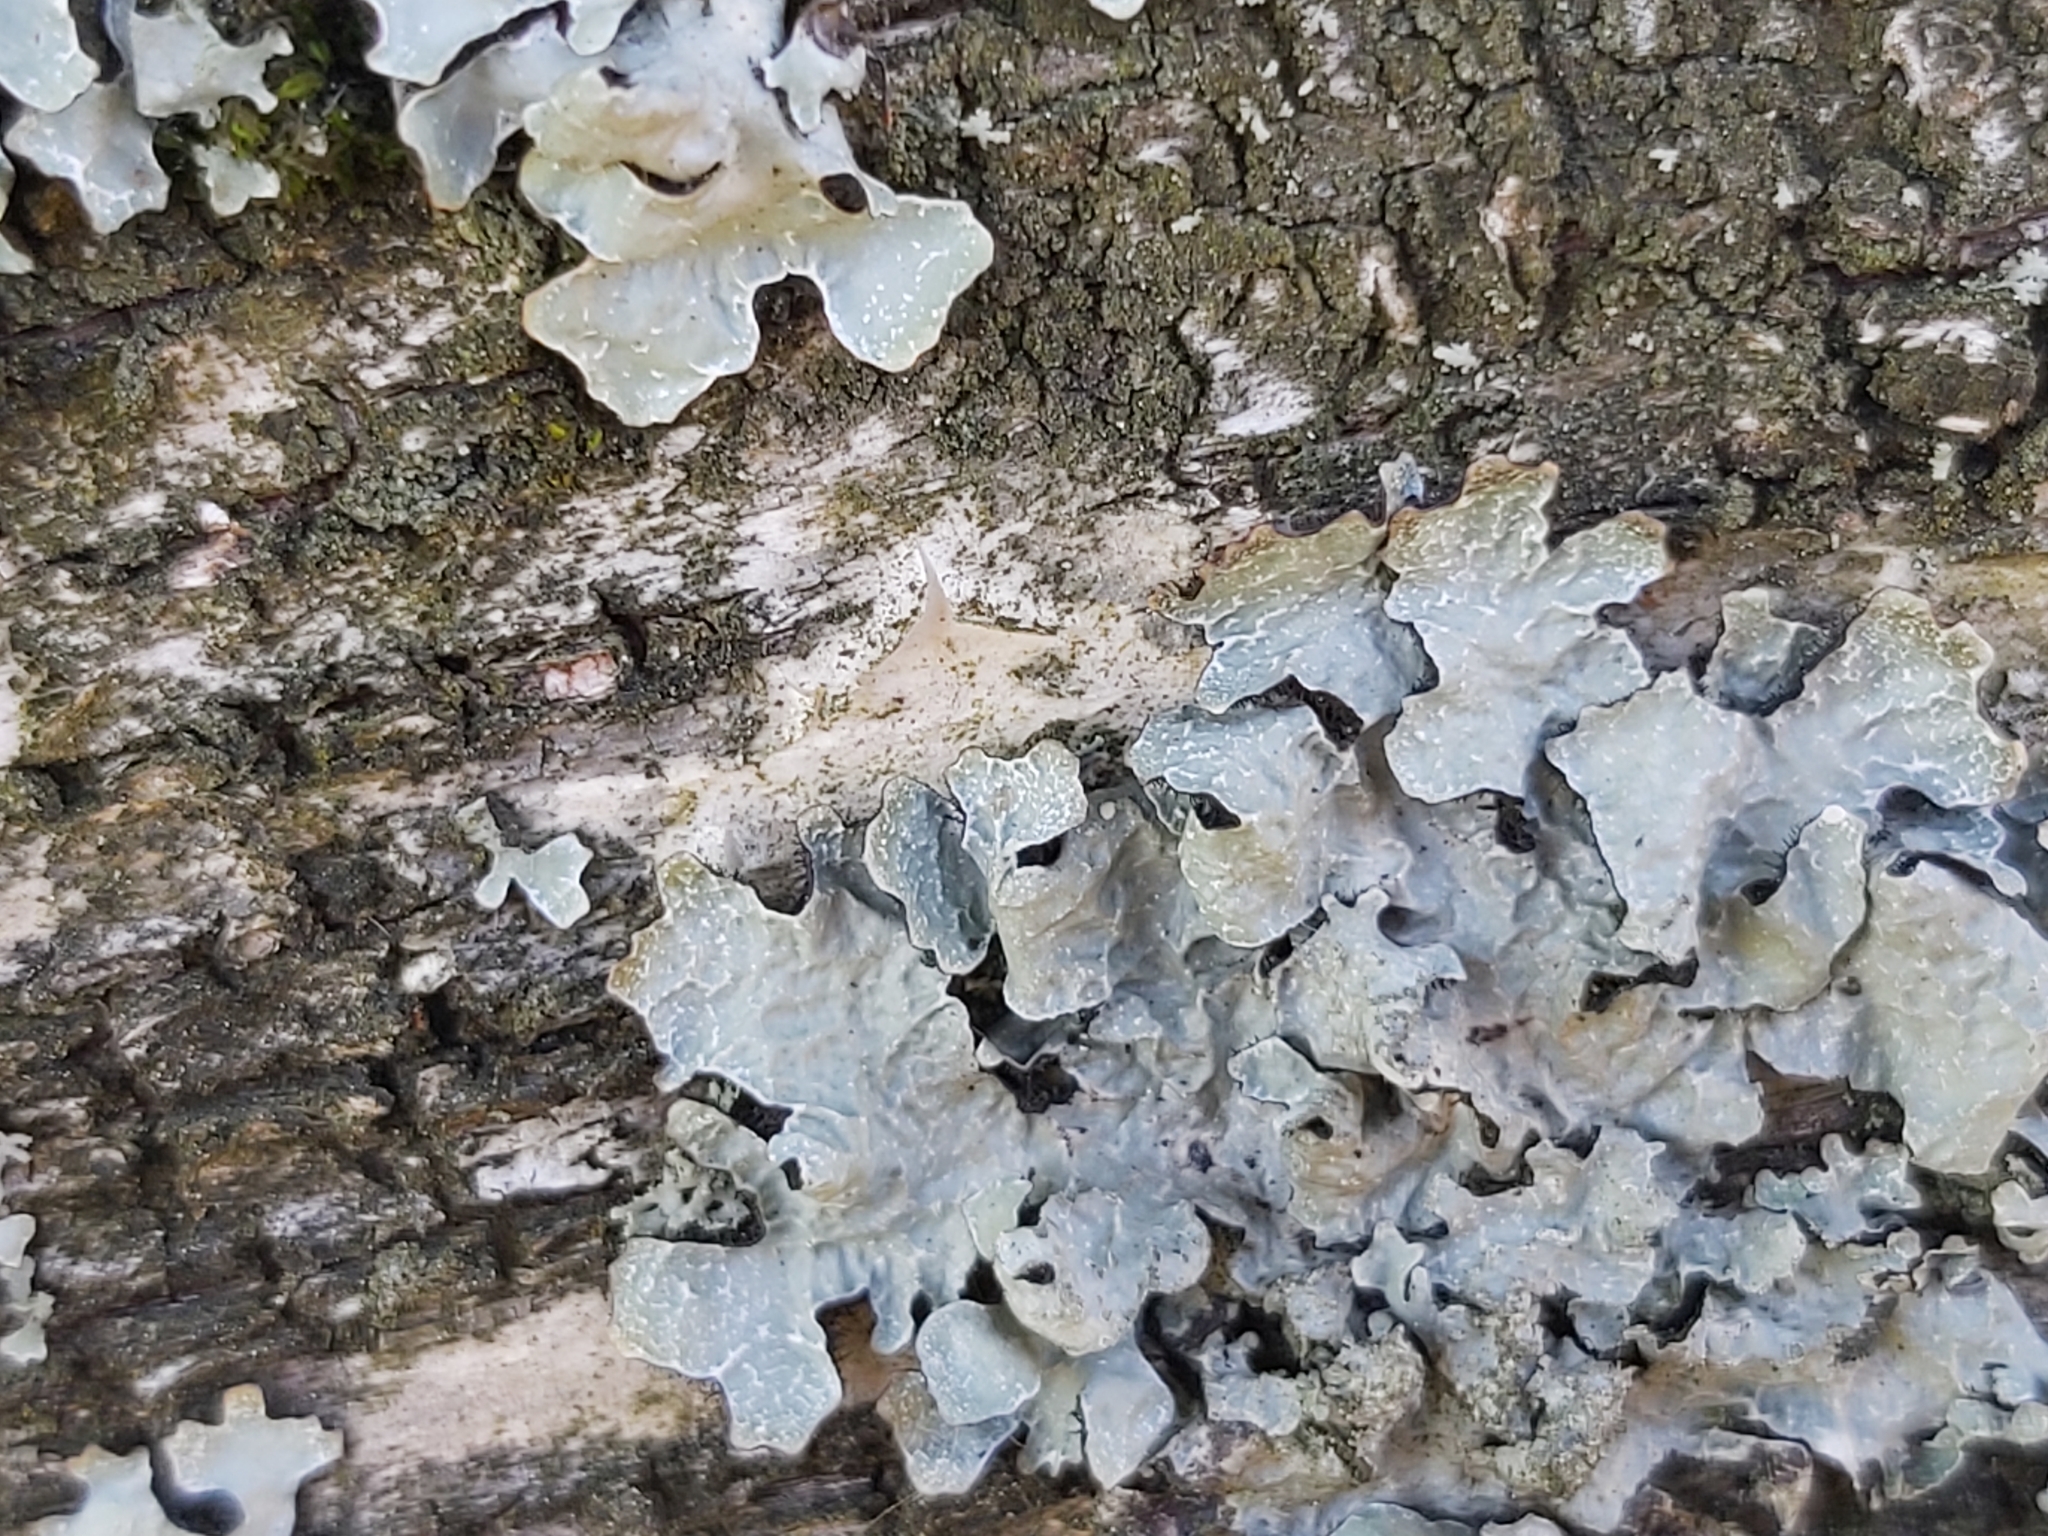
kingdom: Fungi
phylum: Ascomycota
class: Lecanoromycetes
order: Lecanorales
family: Parmeliaceae
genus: Parmelia
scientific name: Parmelia sulcata
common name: Netted shield lichen
